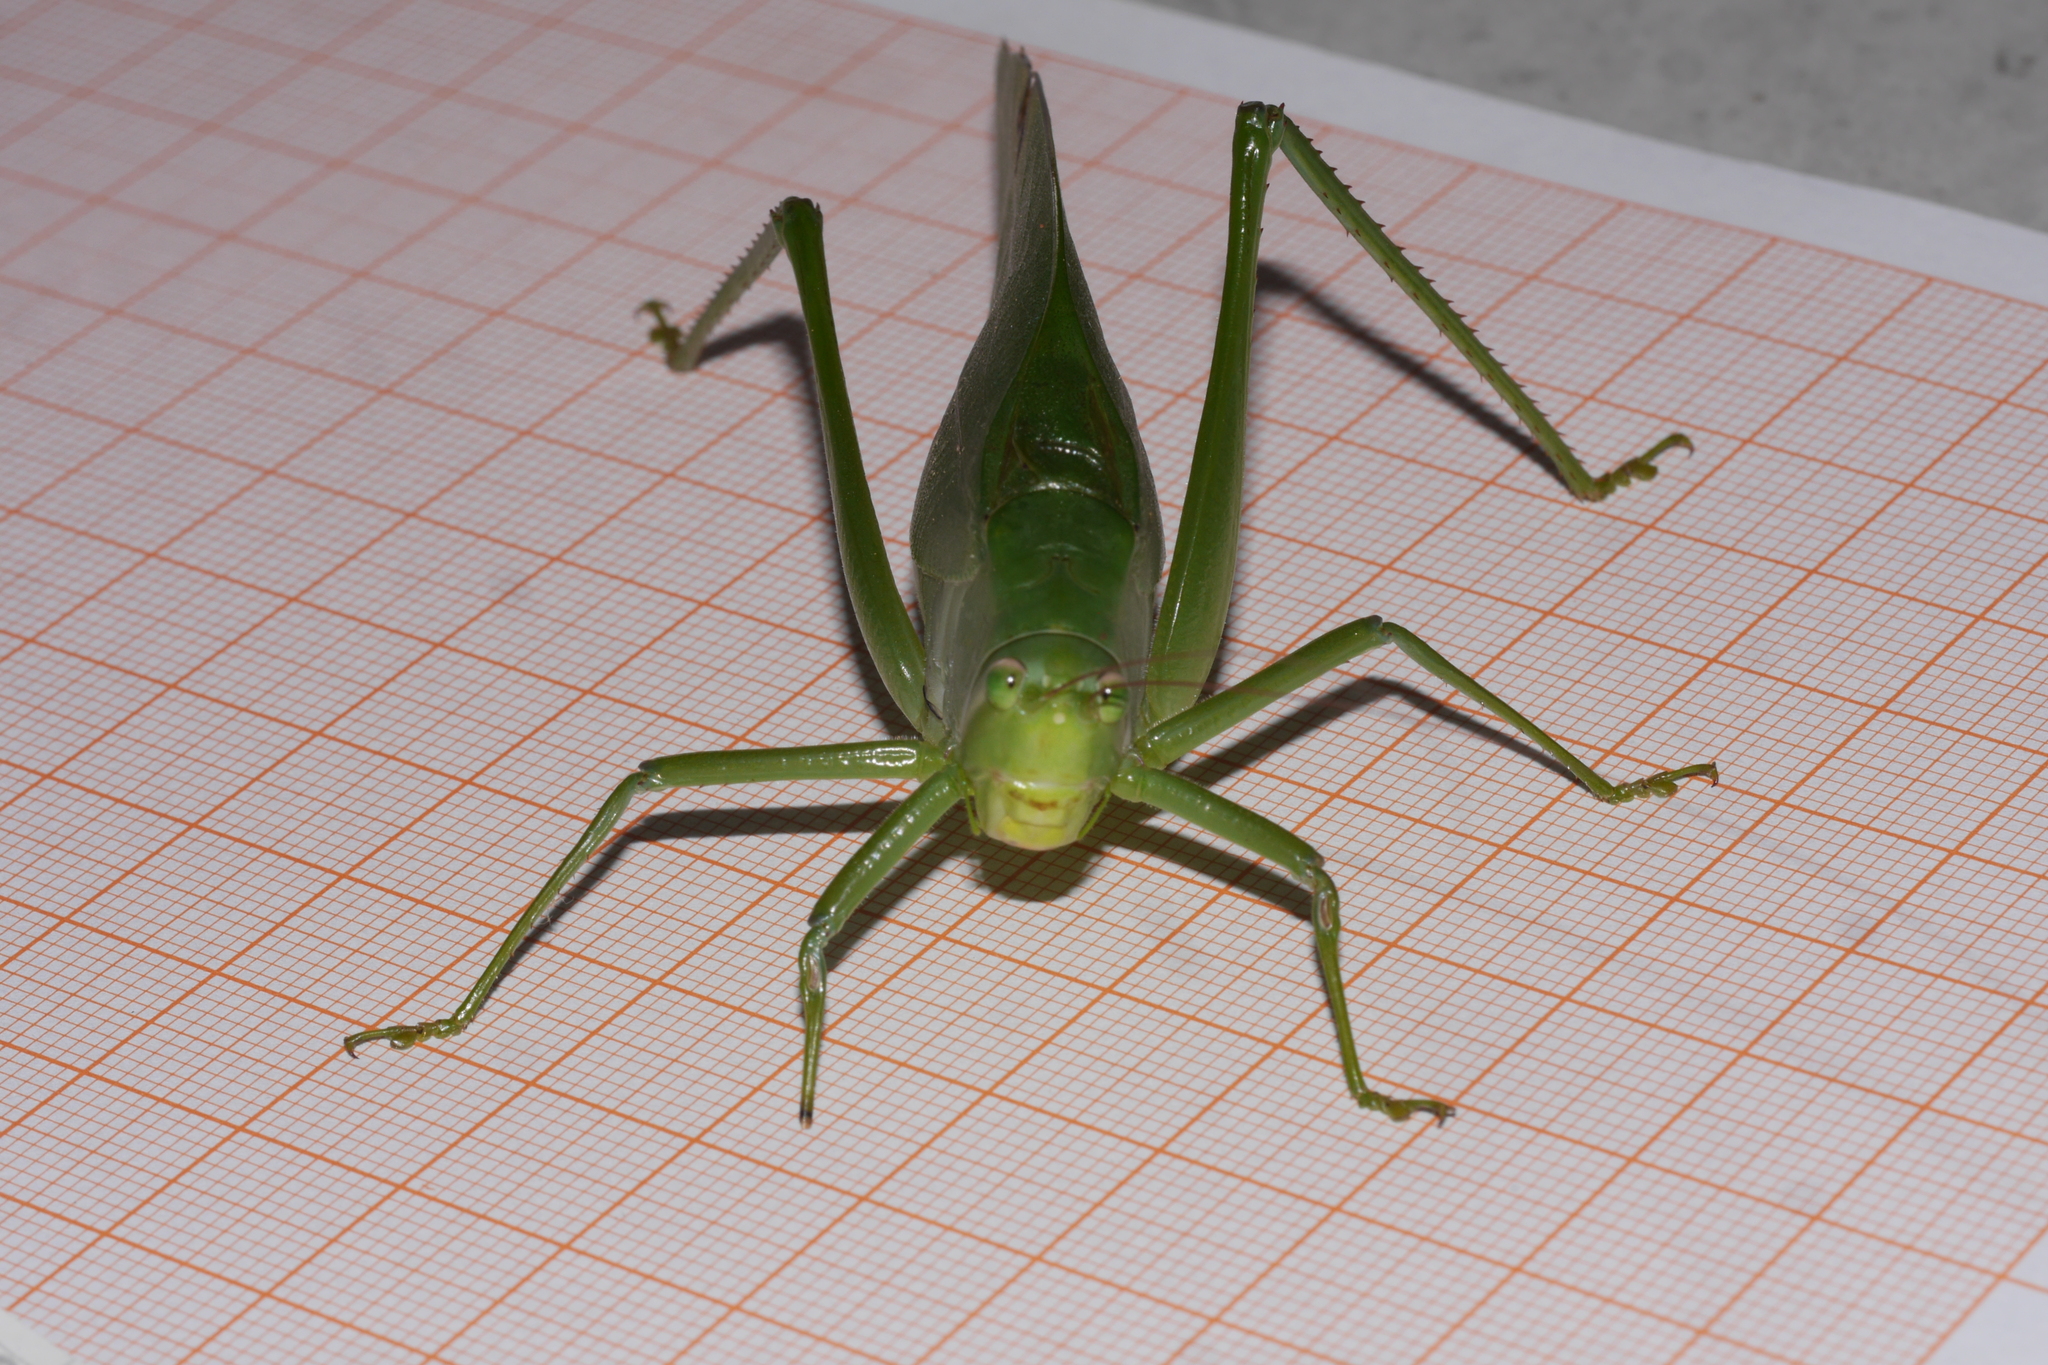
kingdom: Animalia
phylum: Arthropoda
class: Insecta
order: Orthoptera
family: Tettigoniidae
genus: Philophyllia
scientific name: Philophyllia ingens
